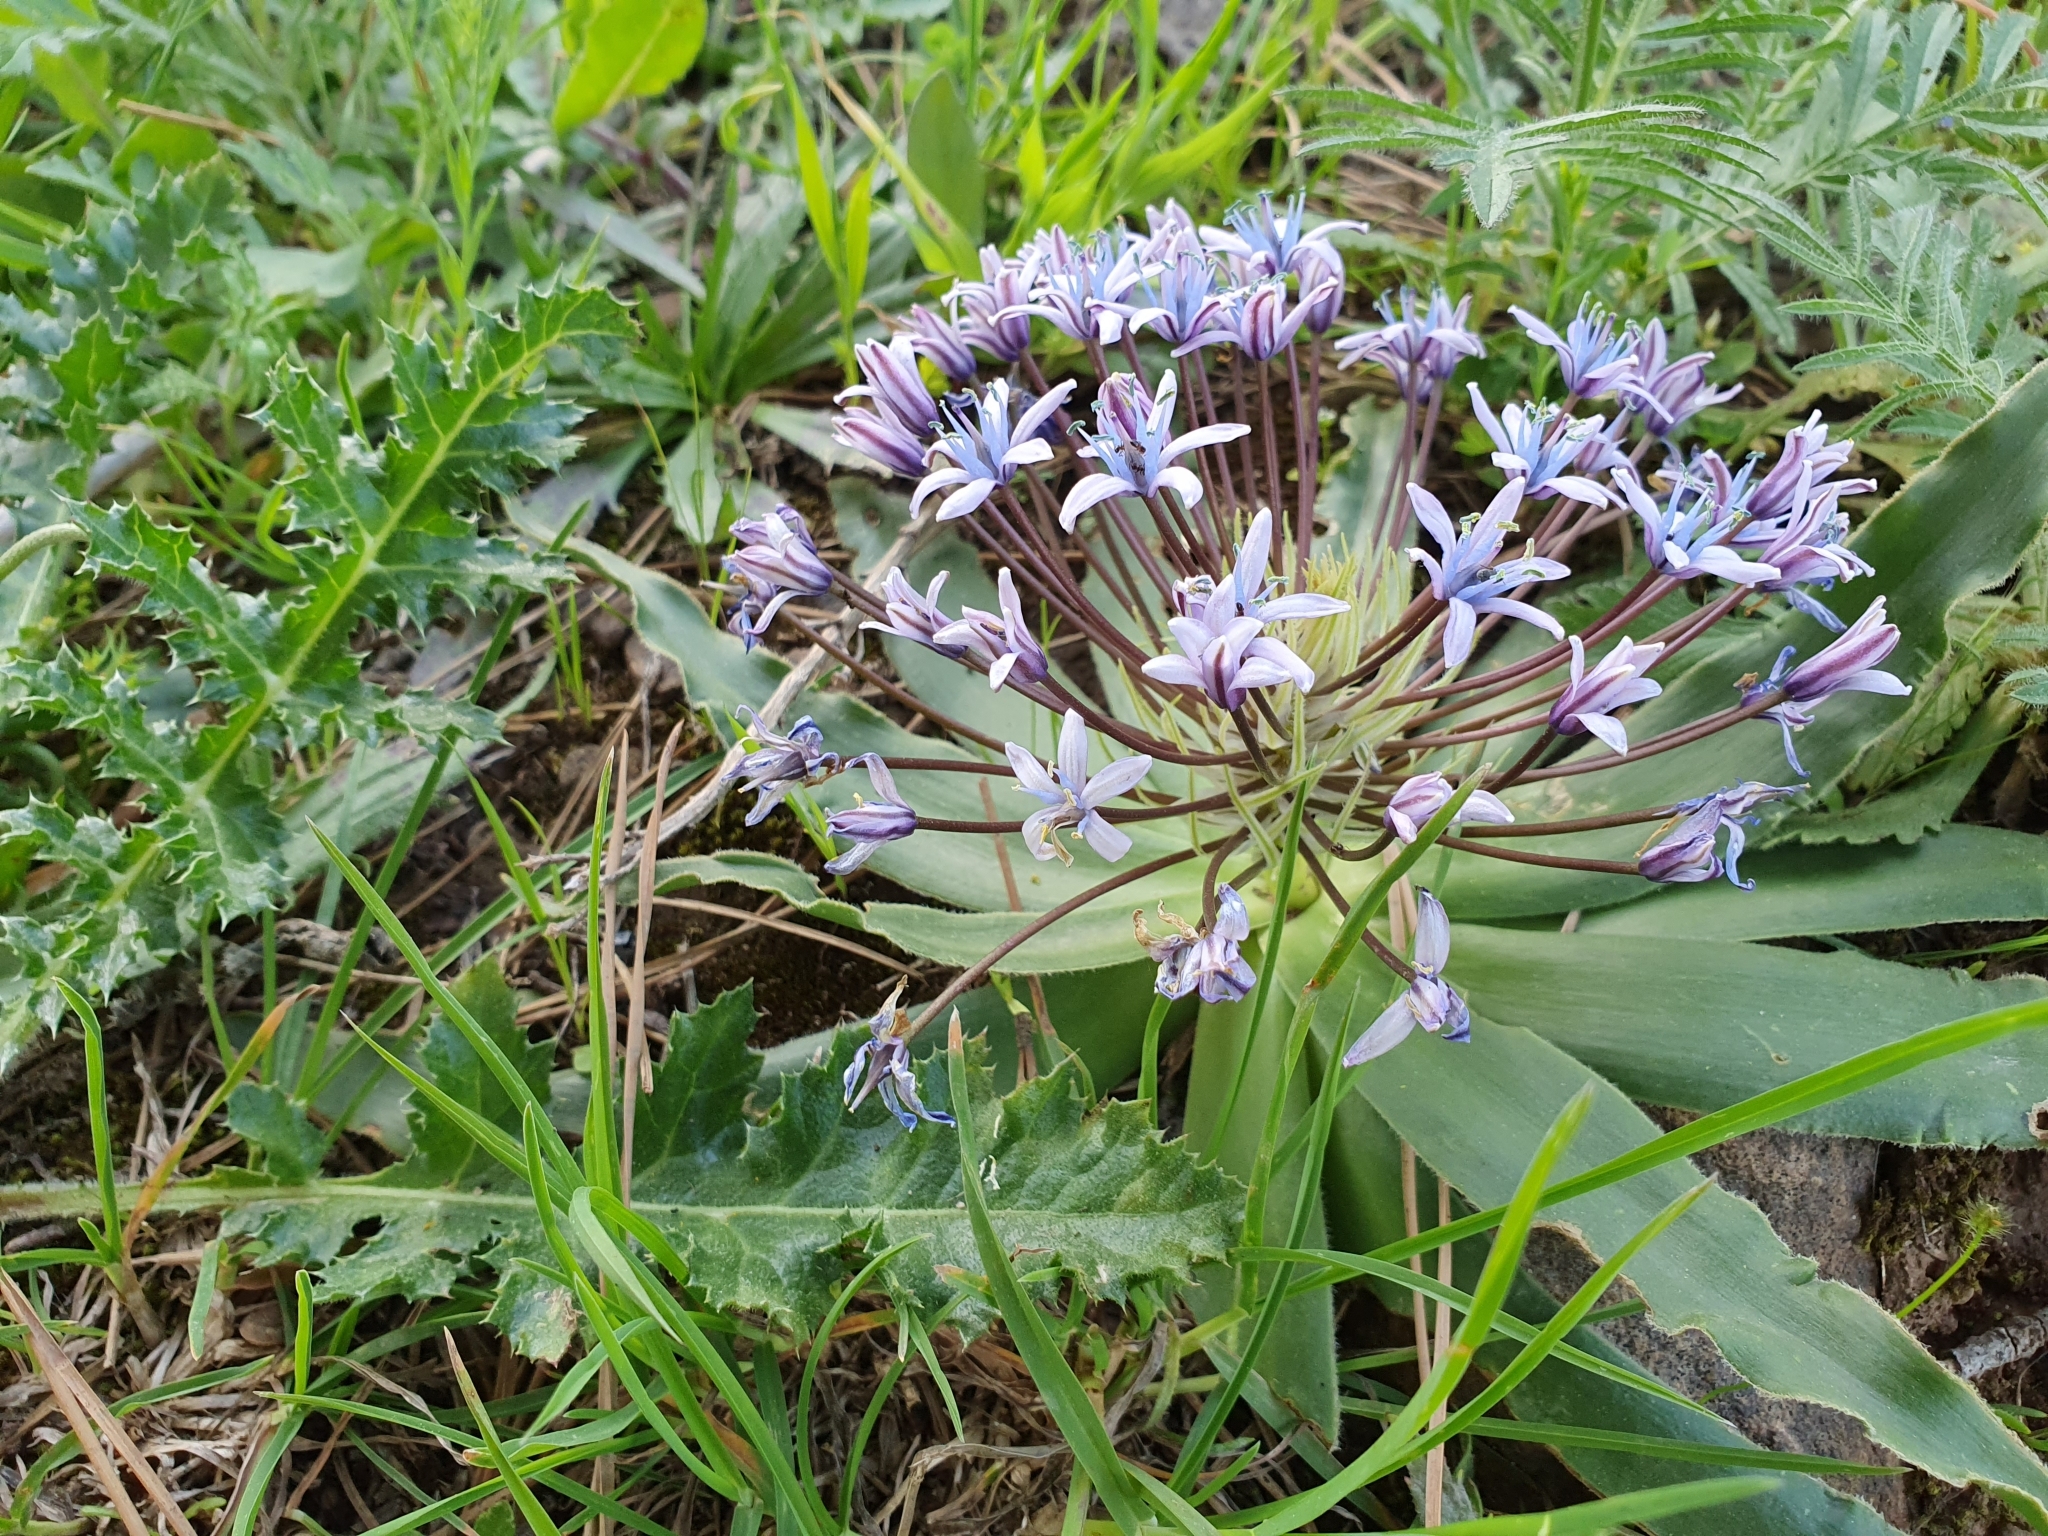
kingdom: Plantae
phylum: Tracheophyta
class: Liliopsida
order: Asparagales
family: Asparagaceae
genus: Scilla
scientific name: Scilla peruviana
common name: Portuguese squill
